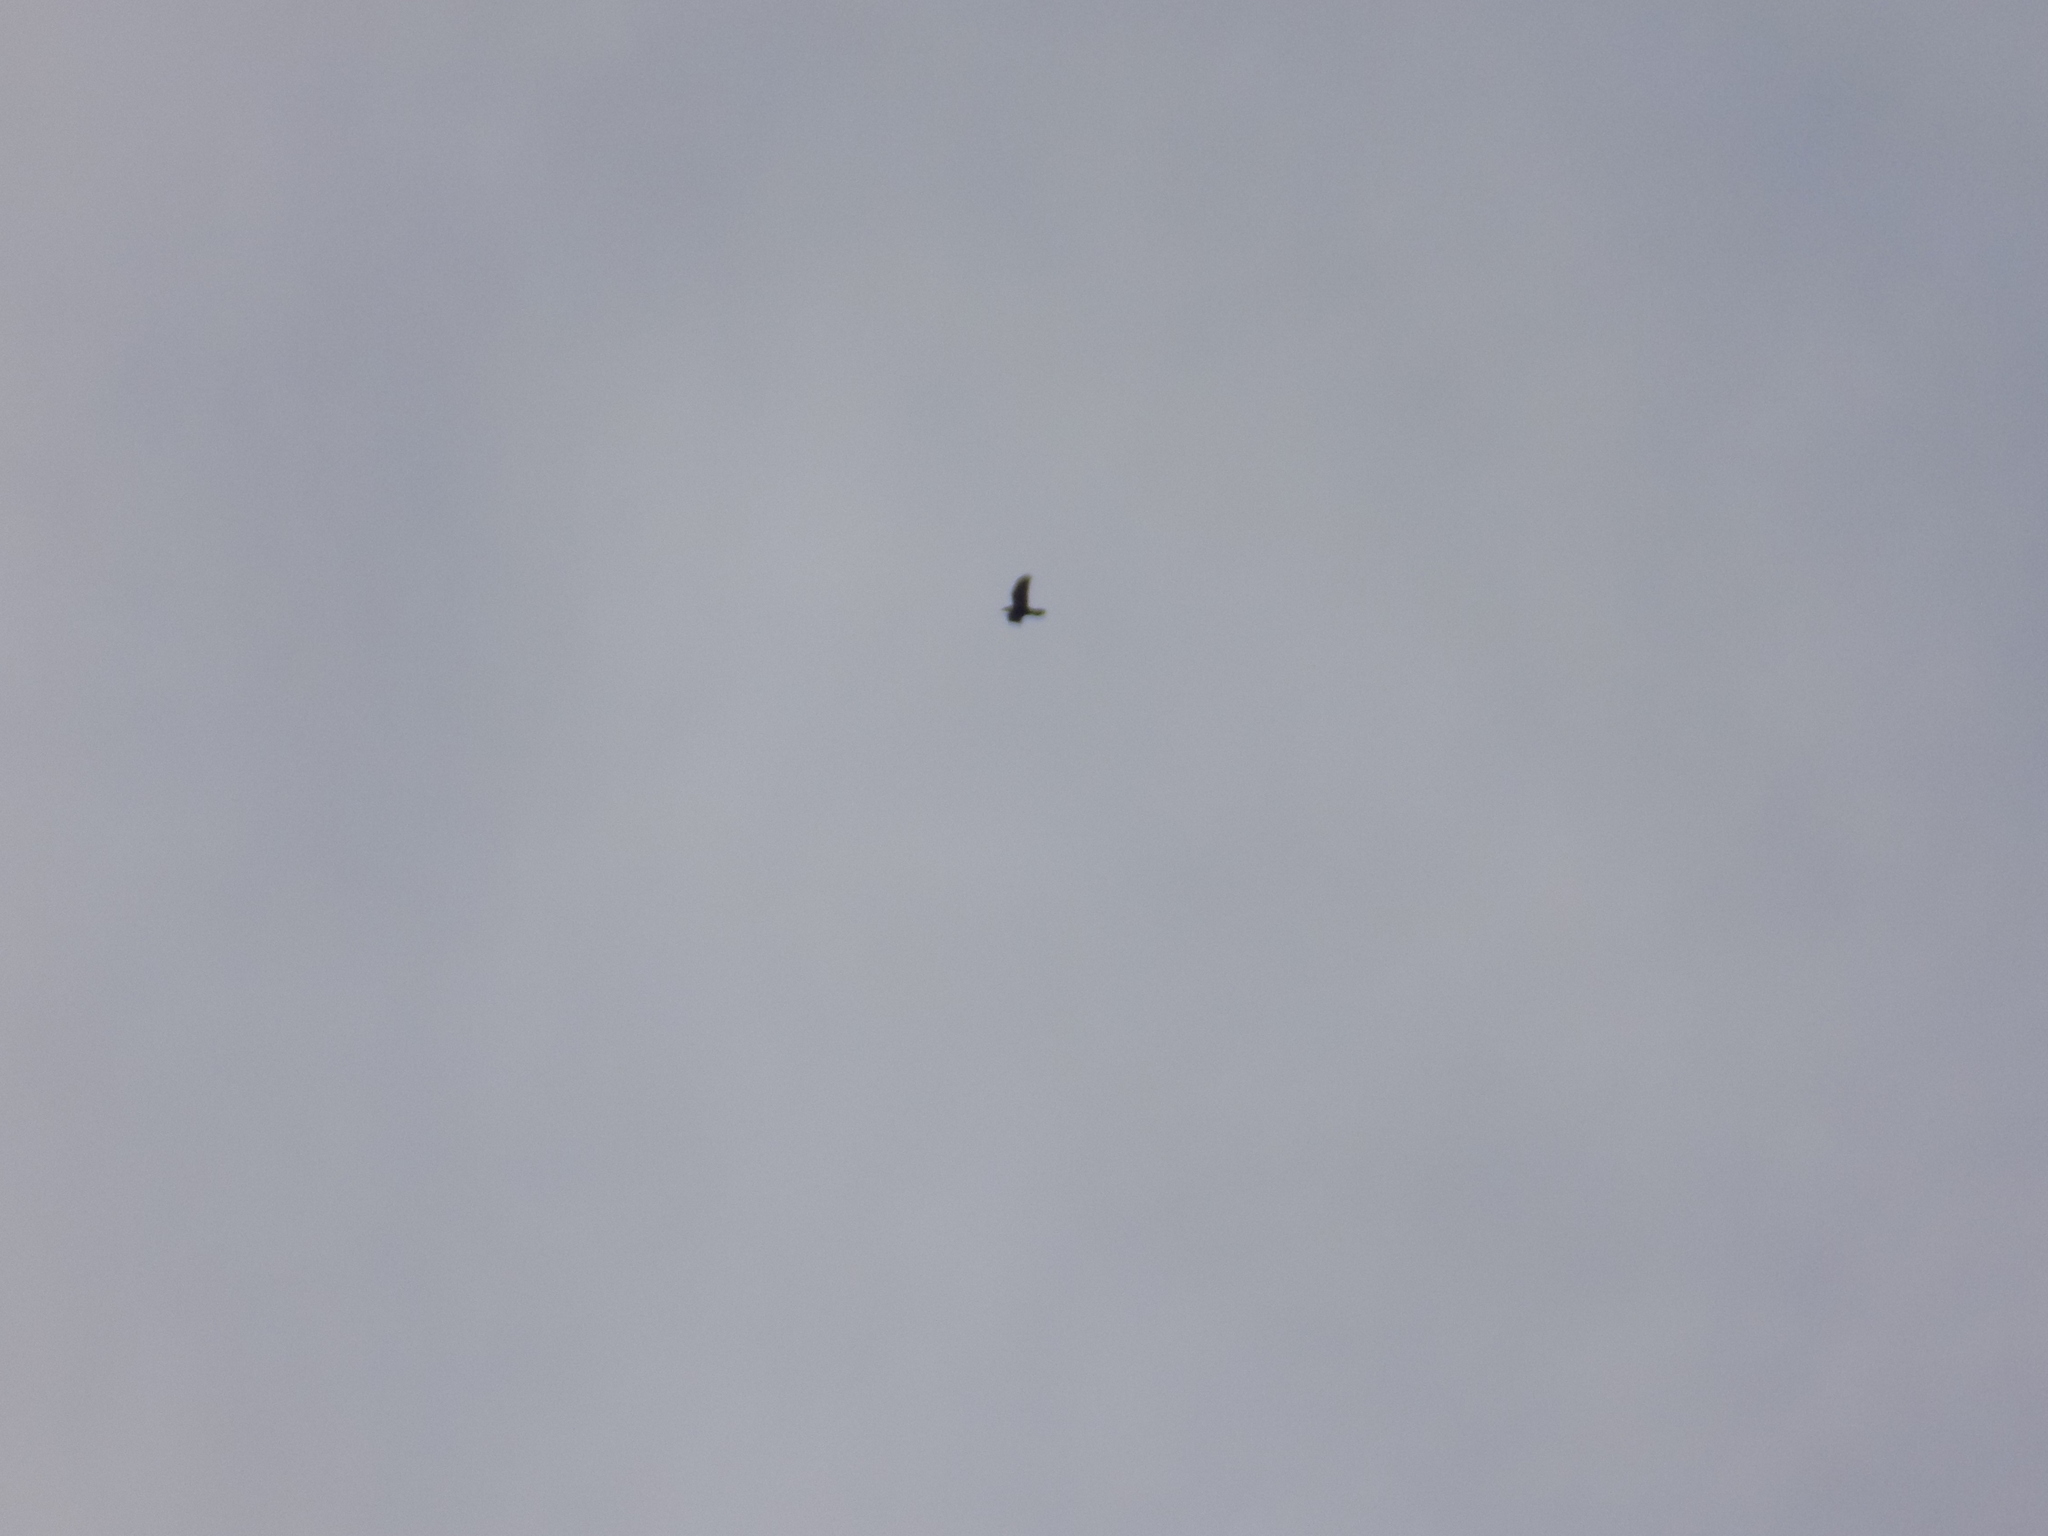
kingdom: Animalia
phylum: Chordata
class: Aves
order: Passeriformes
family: Corvidae
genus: Corvus
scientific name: Corvus corax
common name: Common raven
